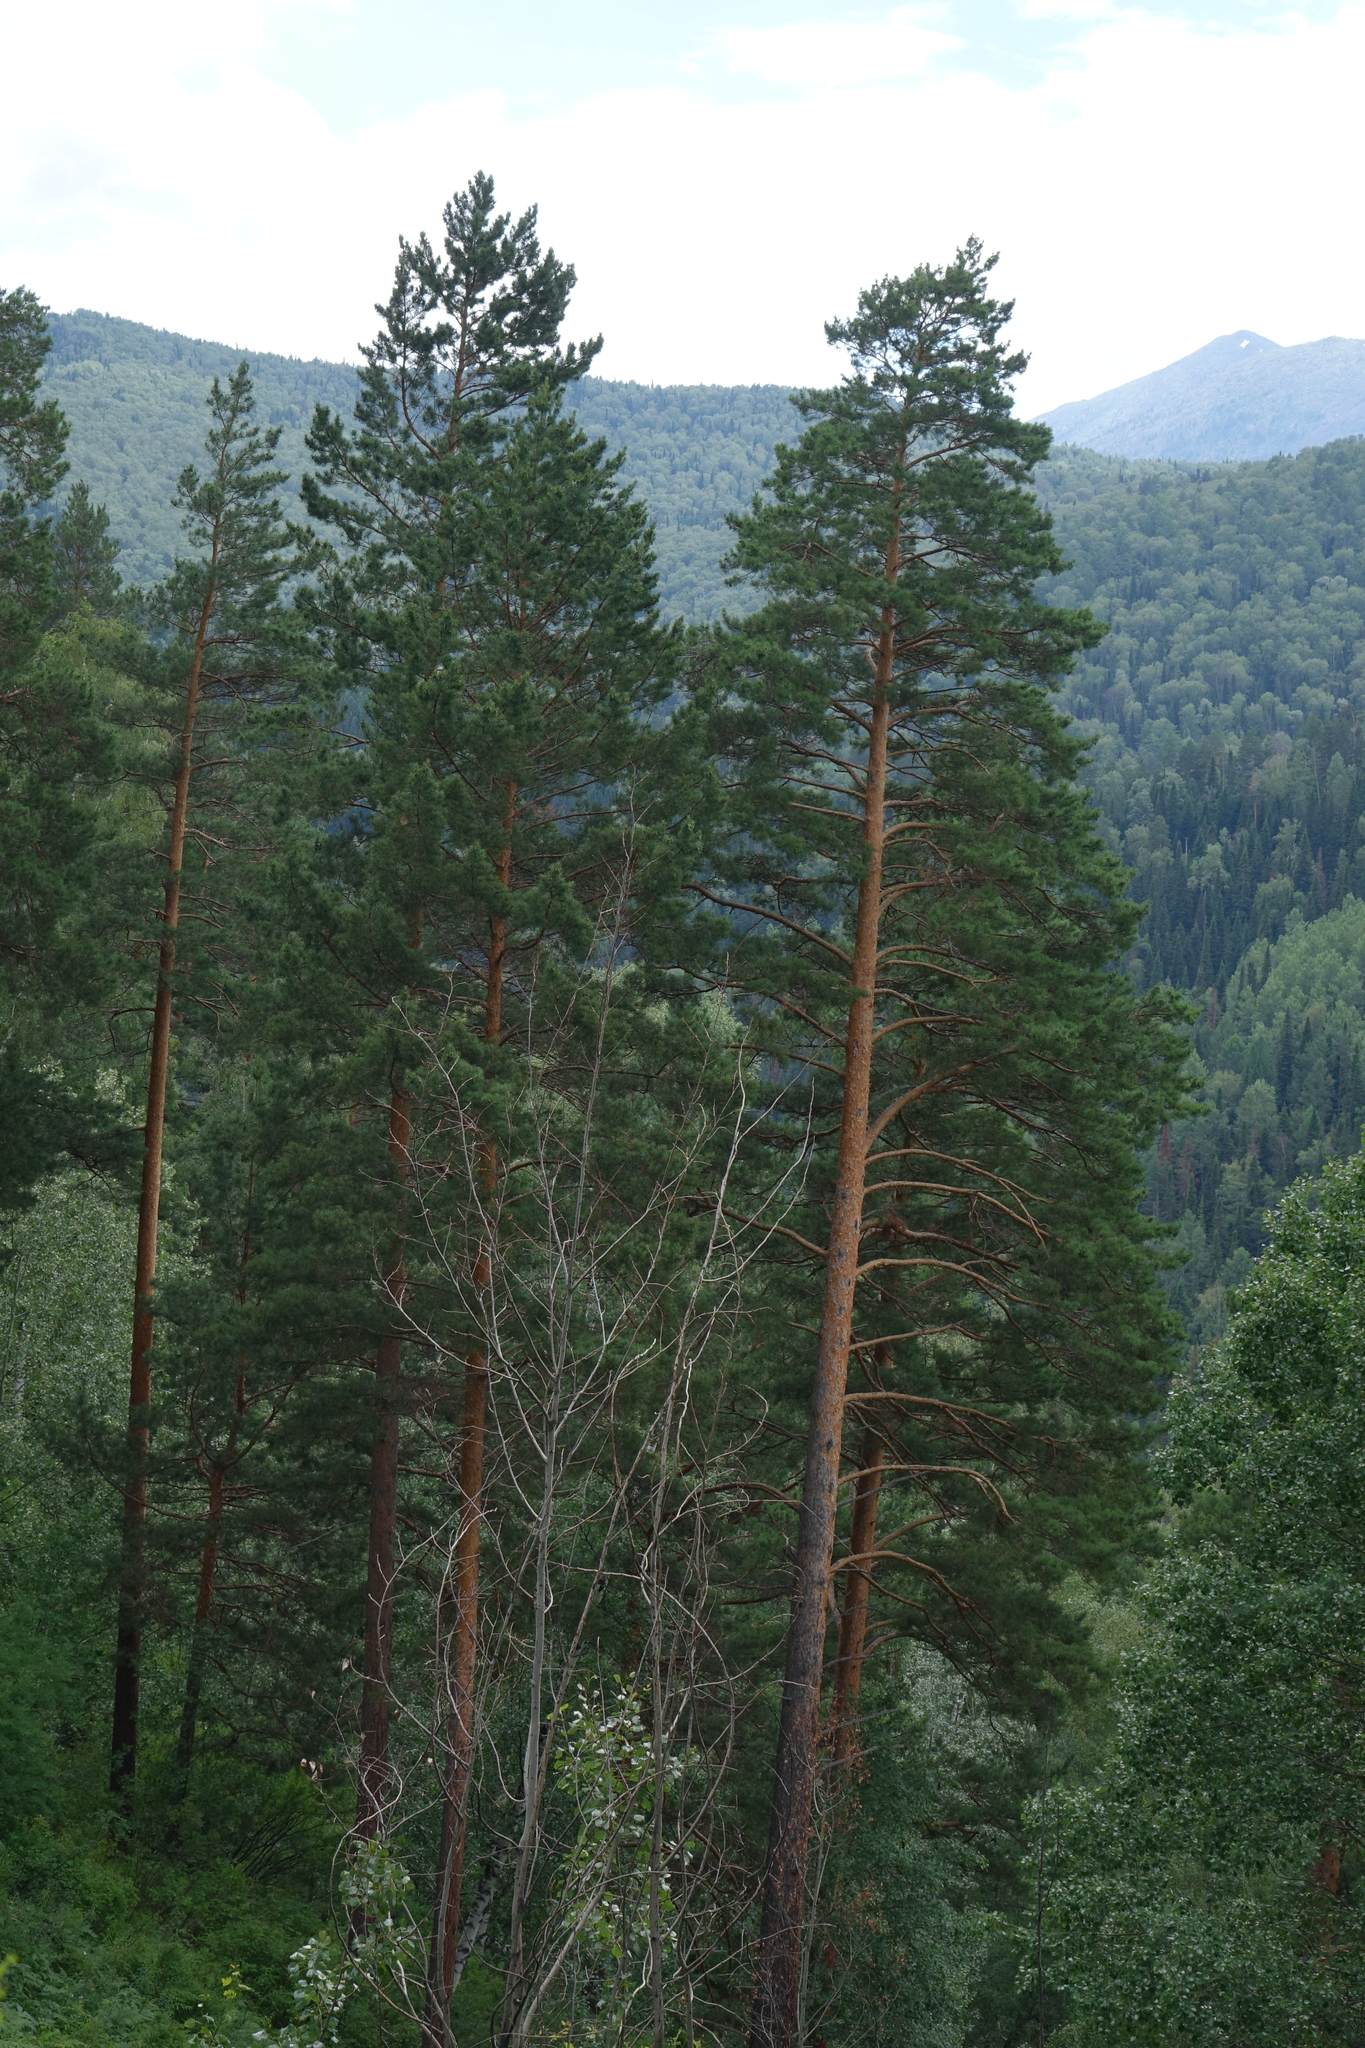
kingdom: Plantae
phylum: Tracheophyta
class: Pinopsida
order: Pinales
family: Pinaceae
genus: Pinus
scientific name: Pinus sylvestris
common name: Scots pine
